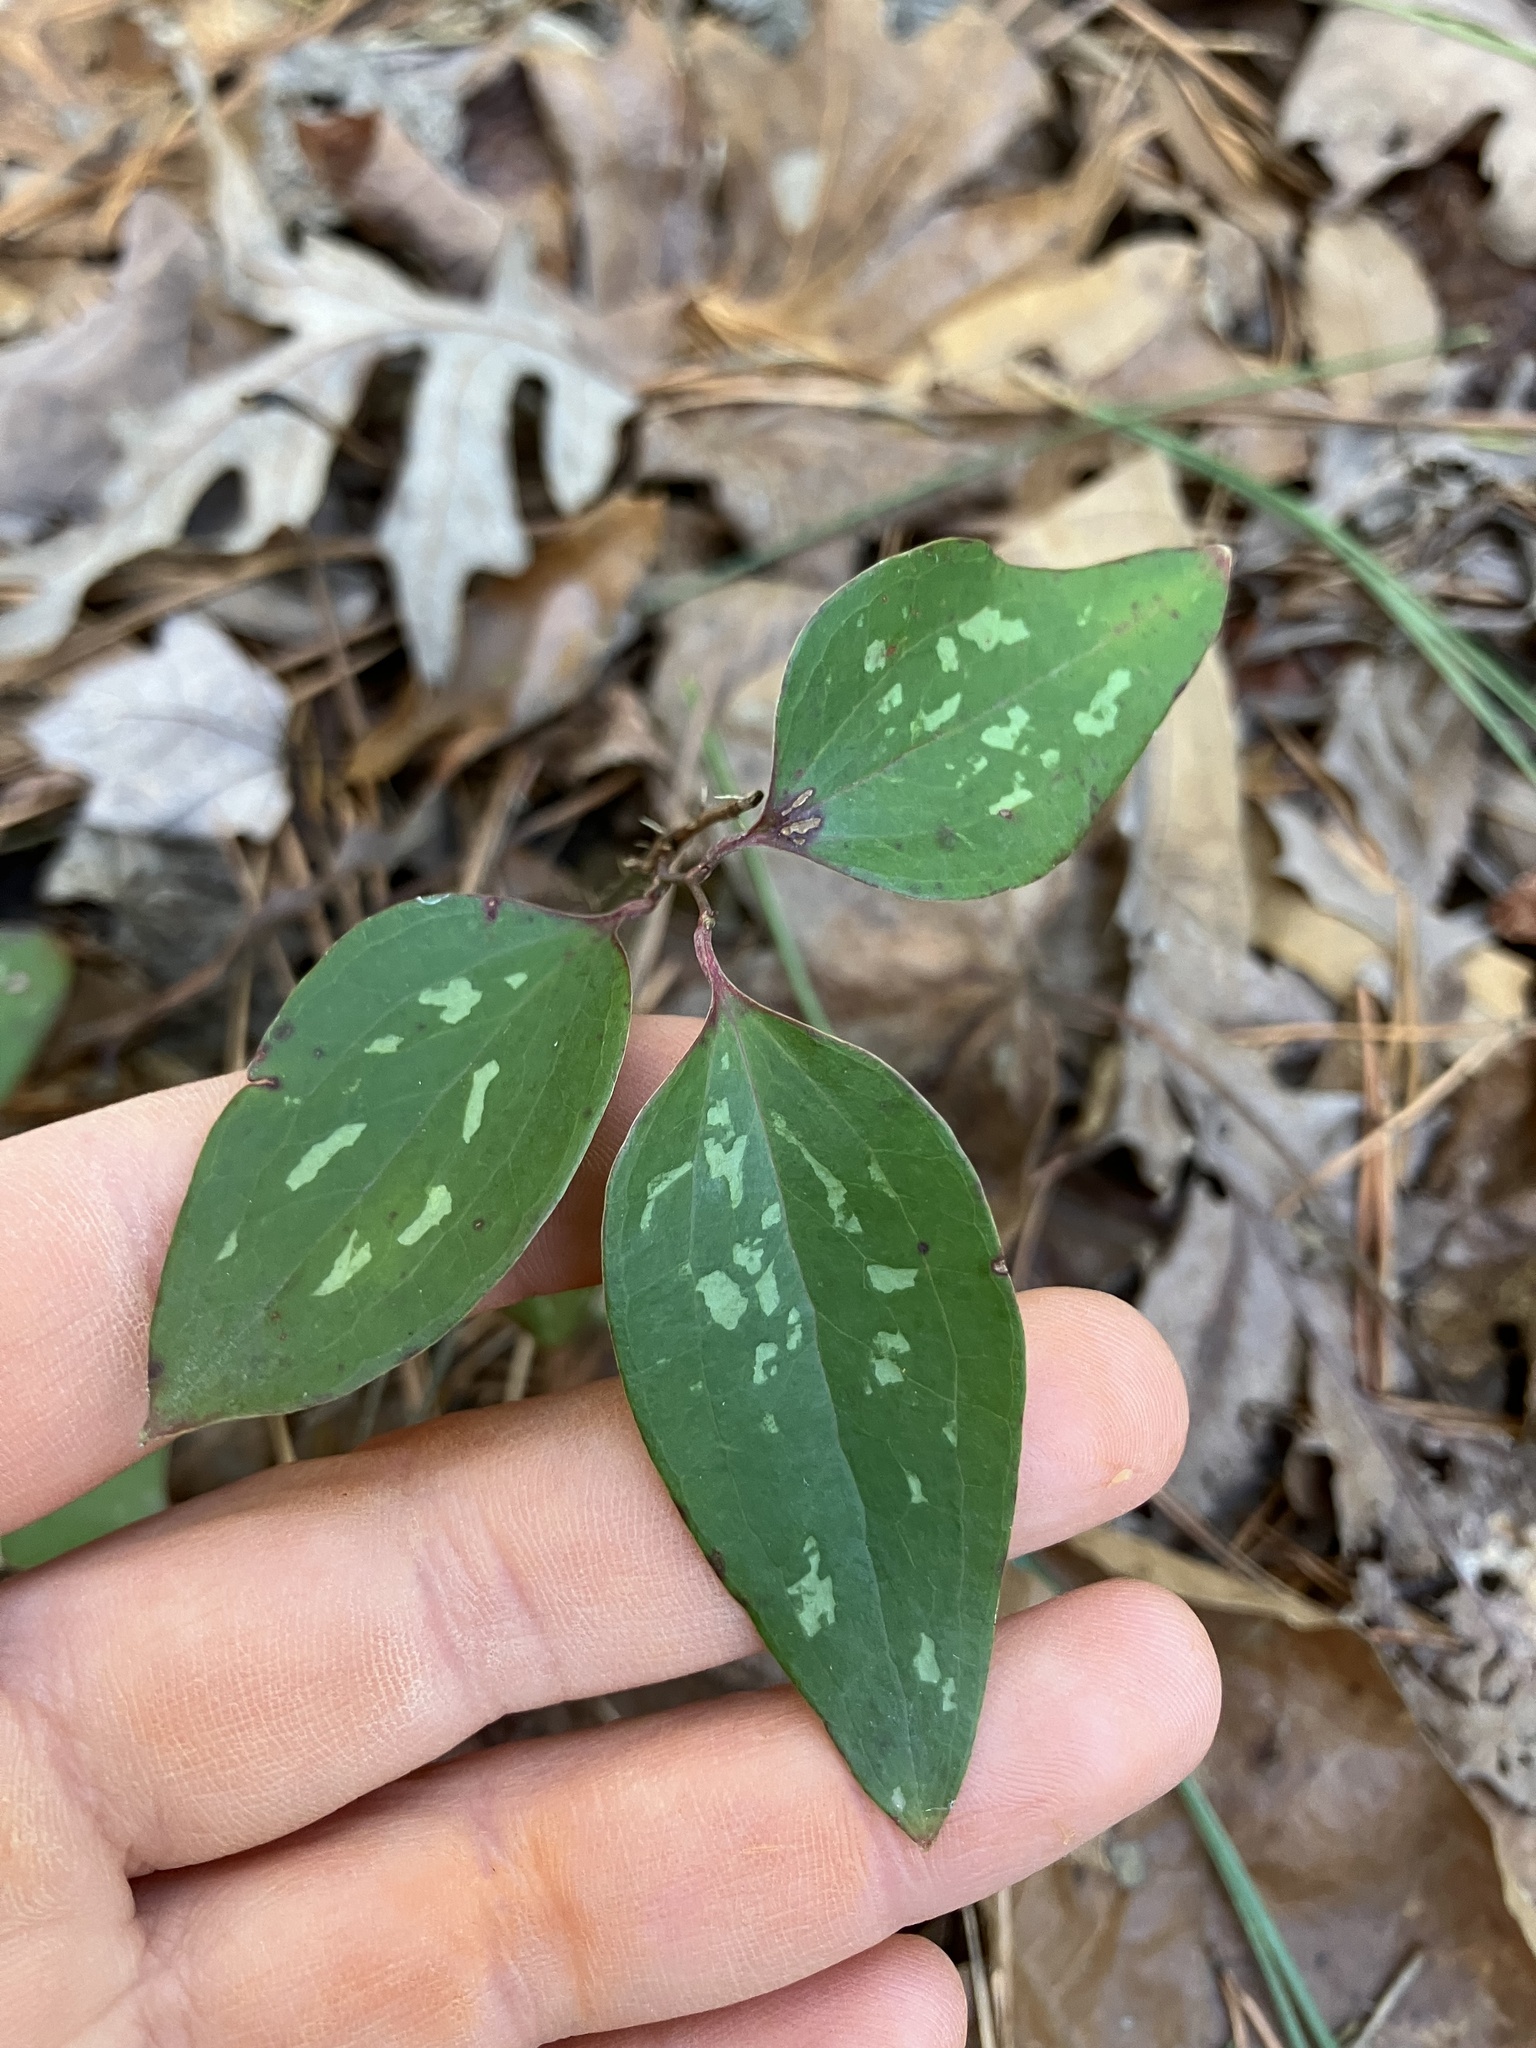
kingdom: Plantae
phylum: Tracheophyta
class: Liliopsida
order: Liliales
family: Smilacaceae
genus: Smilax
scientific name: Smilax glauca
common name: Cat greenbrier
